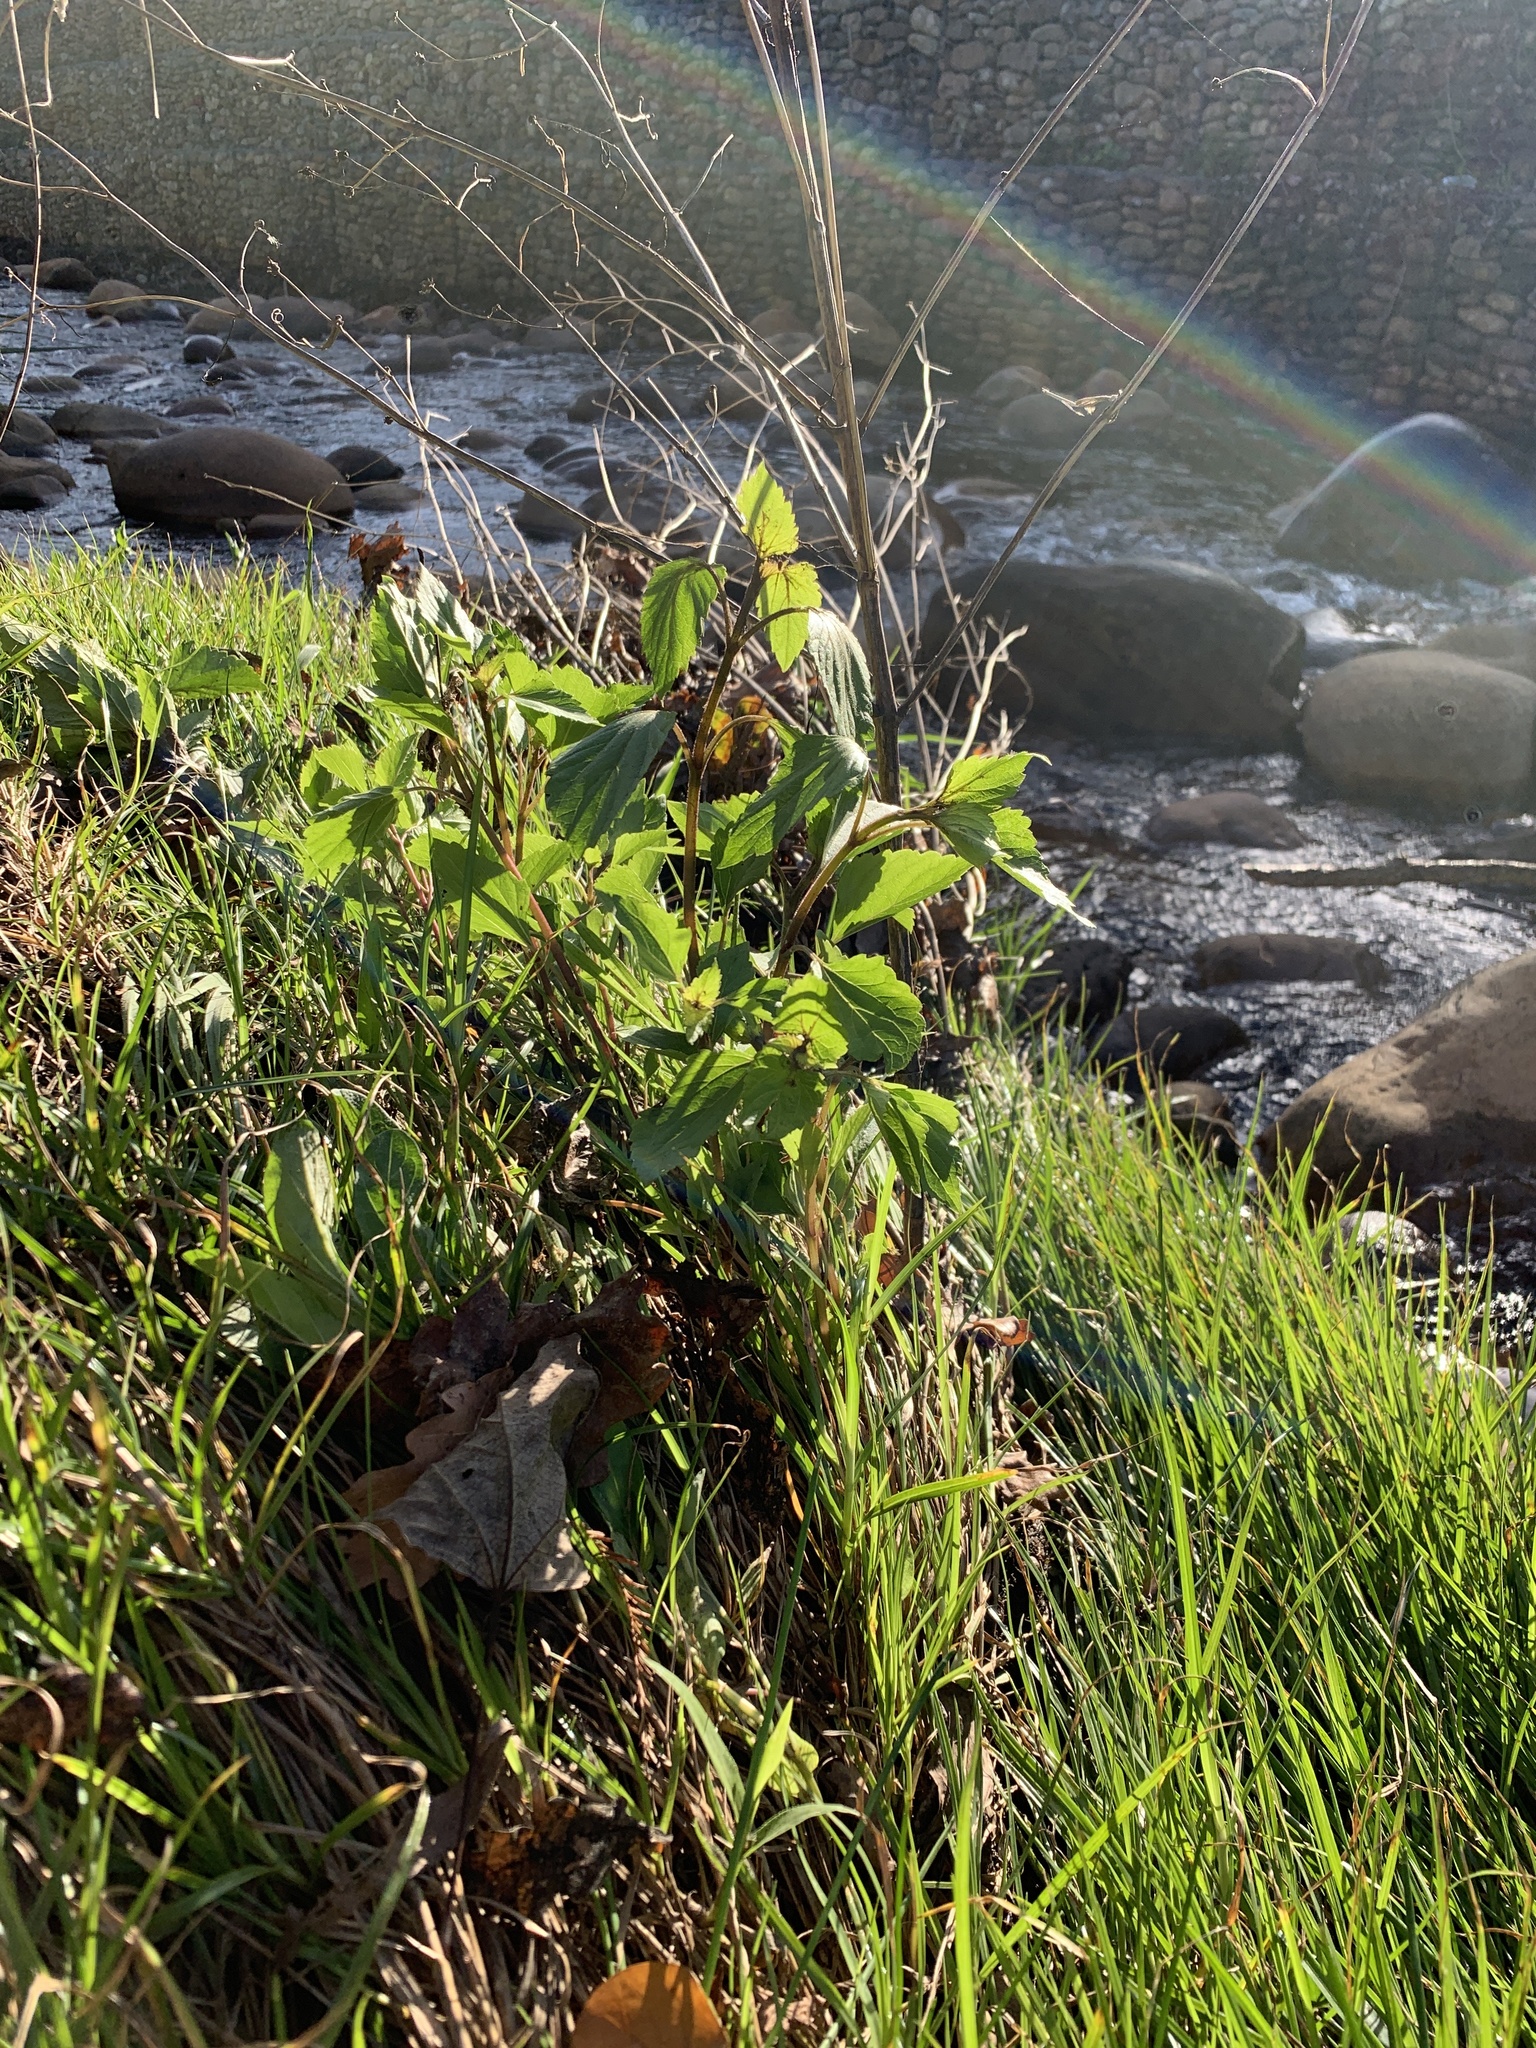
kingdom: Plantae
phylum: Tracheophyta
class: Magnoliopsida
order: Asterales
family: Asteraceae
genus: Ageratina
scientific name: Ageratina adenophora
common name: Sticky snakeroot
